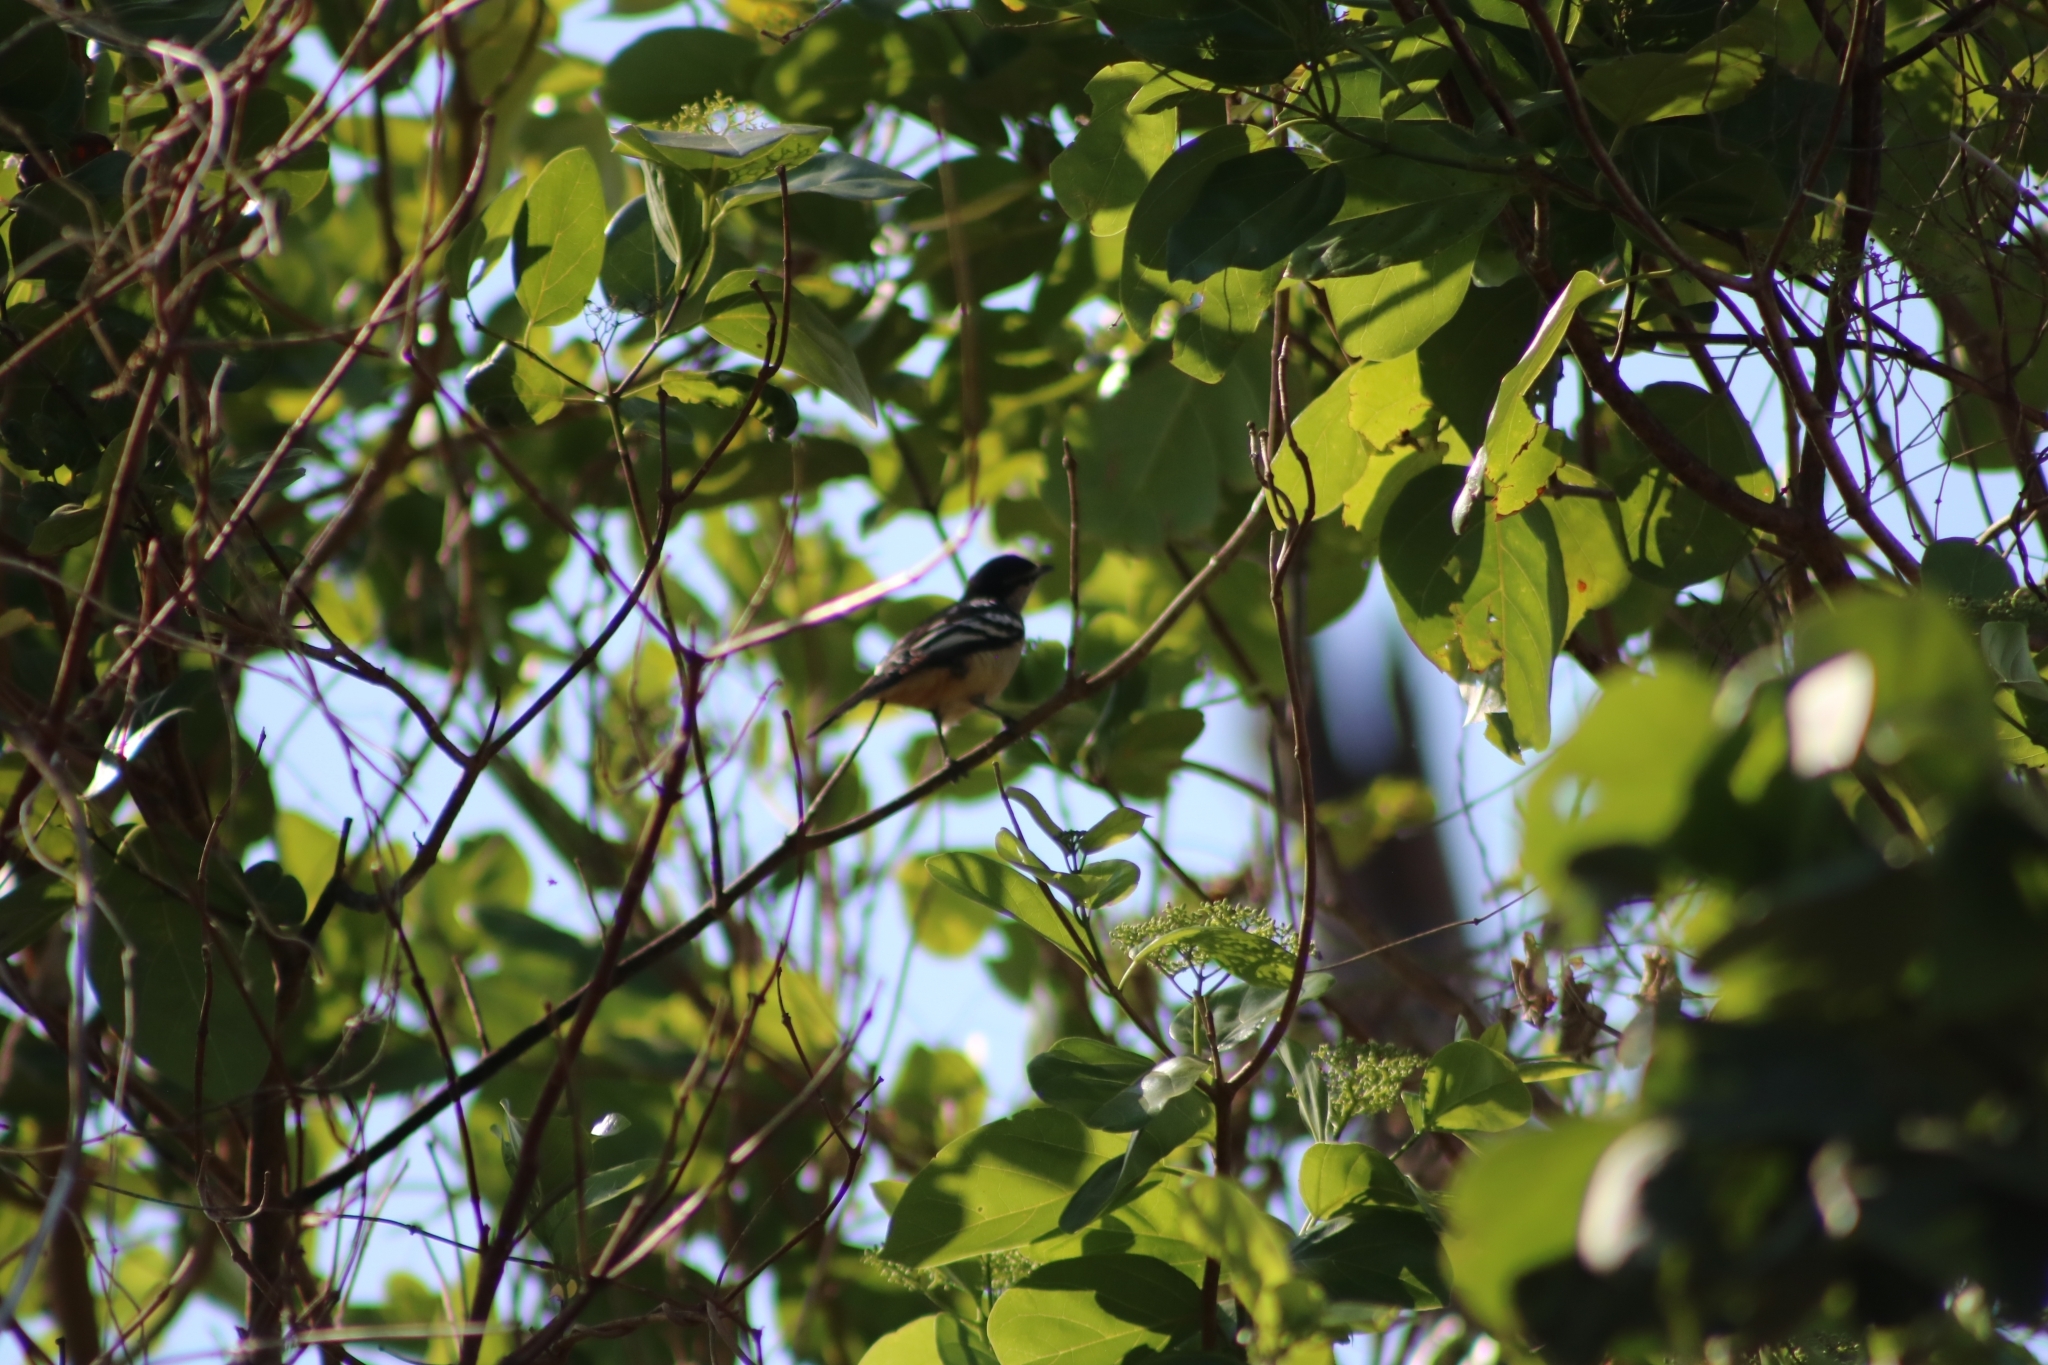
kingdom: Animalia
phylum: Chordata
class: Aves
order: Passeriformes
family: Campephagidae
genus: Lalage
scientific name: Lalage leucomela
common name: Varied triller
